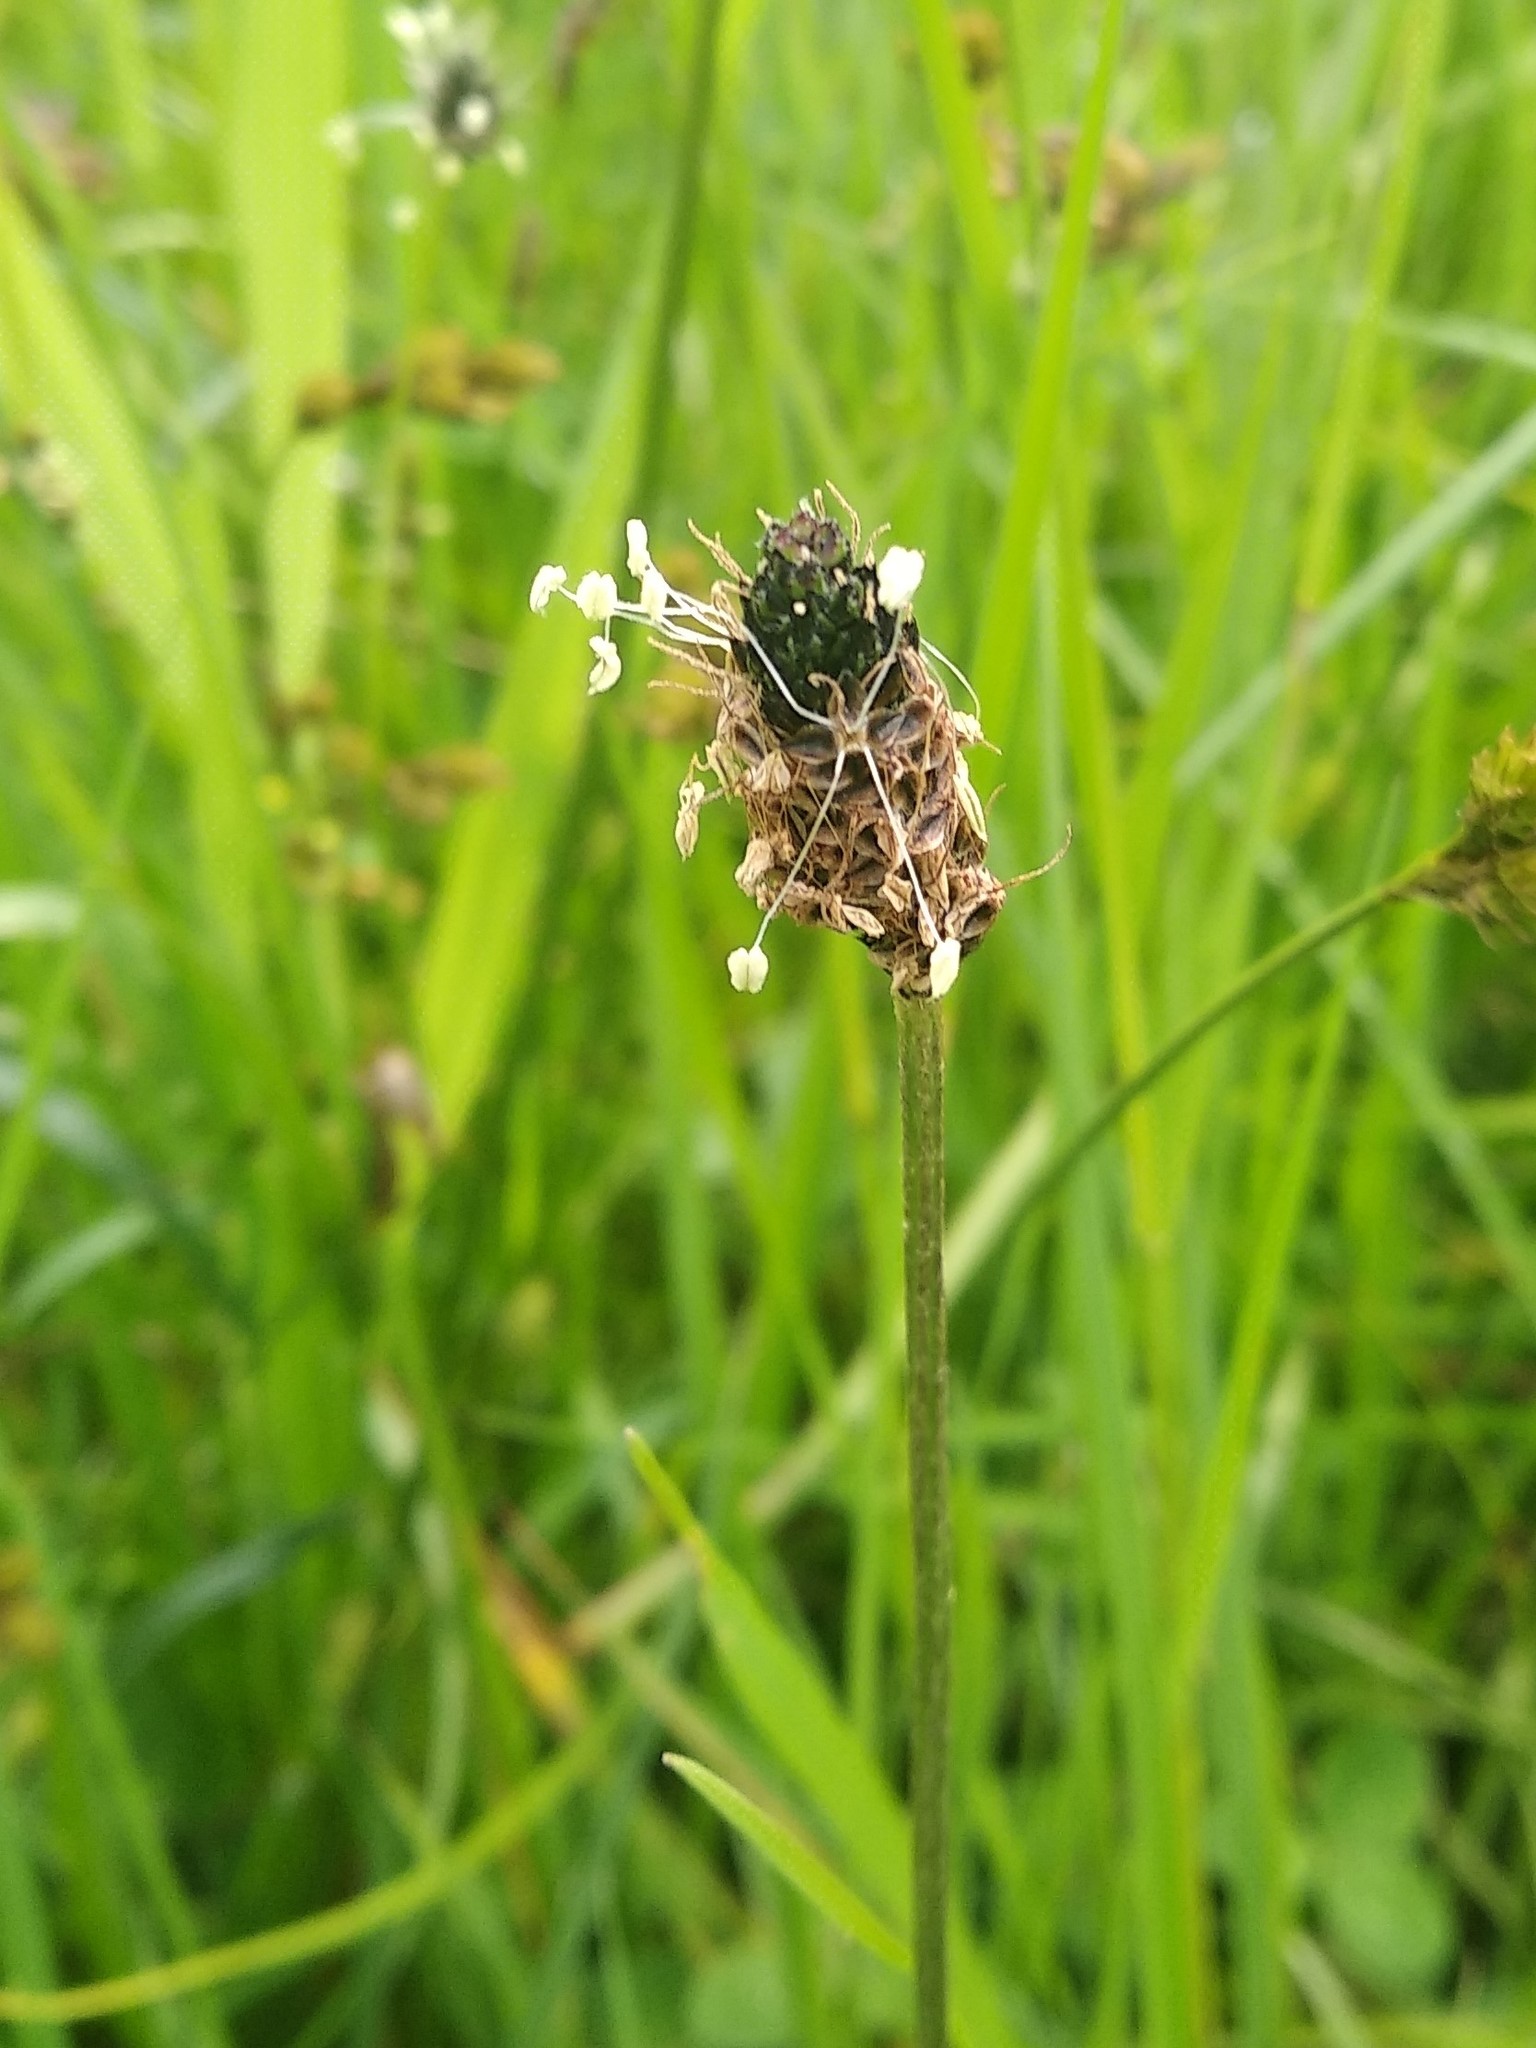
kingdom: Plantae
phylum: Tracheophyta
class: Magnoliopsida
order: Lamiales
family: Plantaginaceae
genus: Plantago
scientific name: Plantago lanceolata
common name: Ribwort plantain
